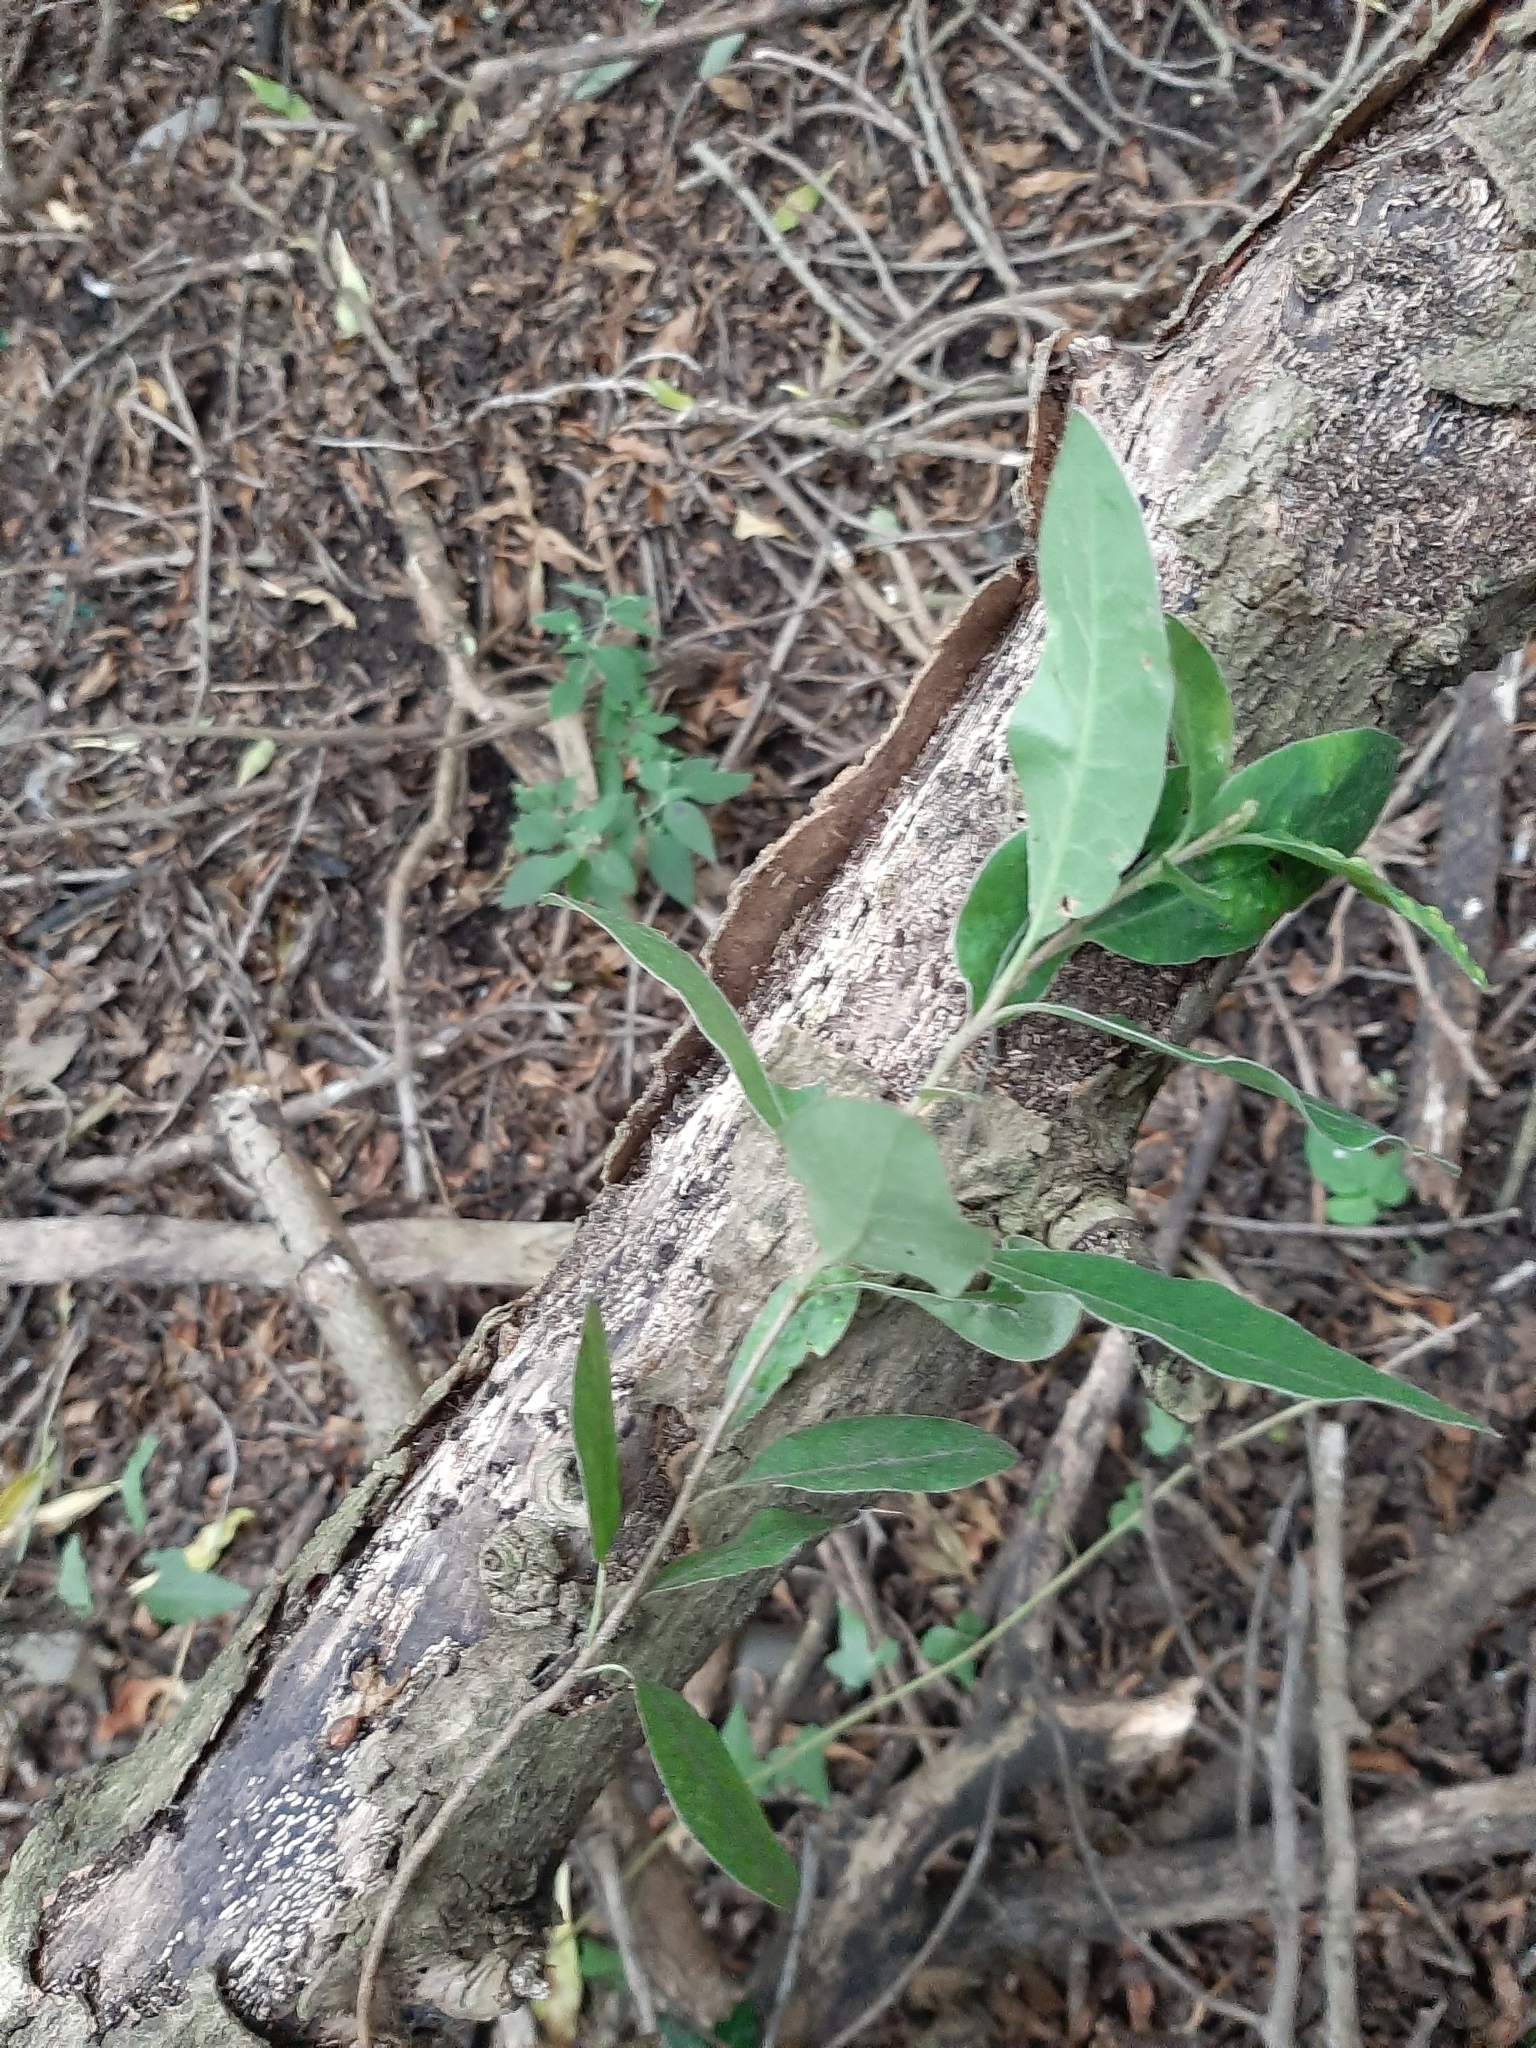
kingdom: Plantae
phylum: Tracheophyta
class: Magnoliopsida
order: Apiales
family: Pittosporaceae
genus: Pittosporum
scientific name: Pittosporum ralphii
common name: Ralph's desertwillow
